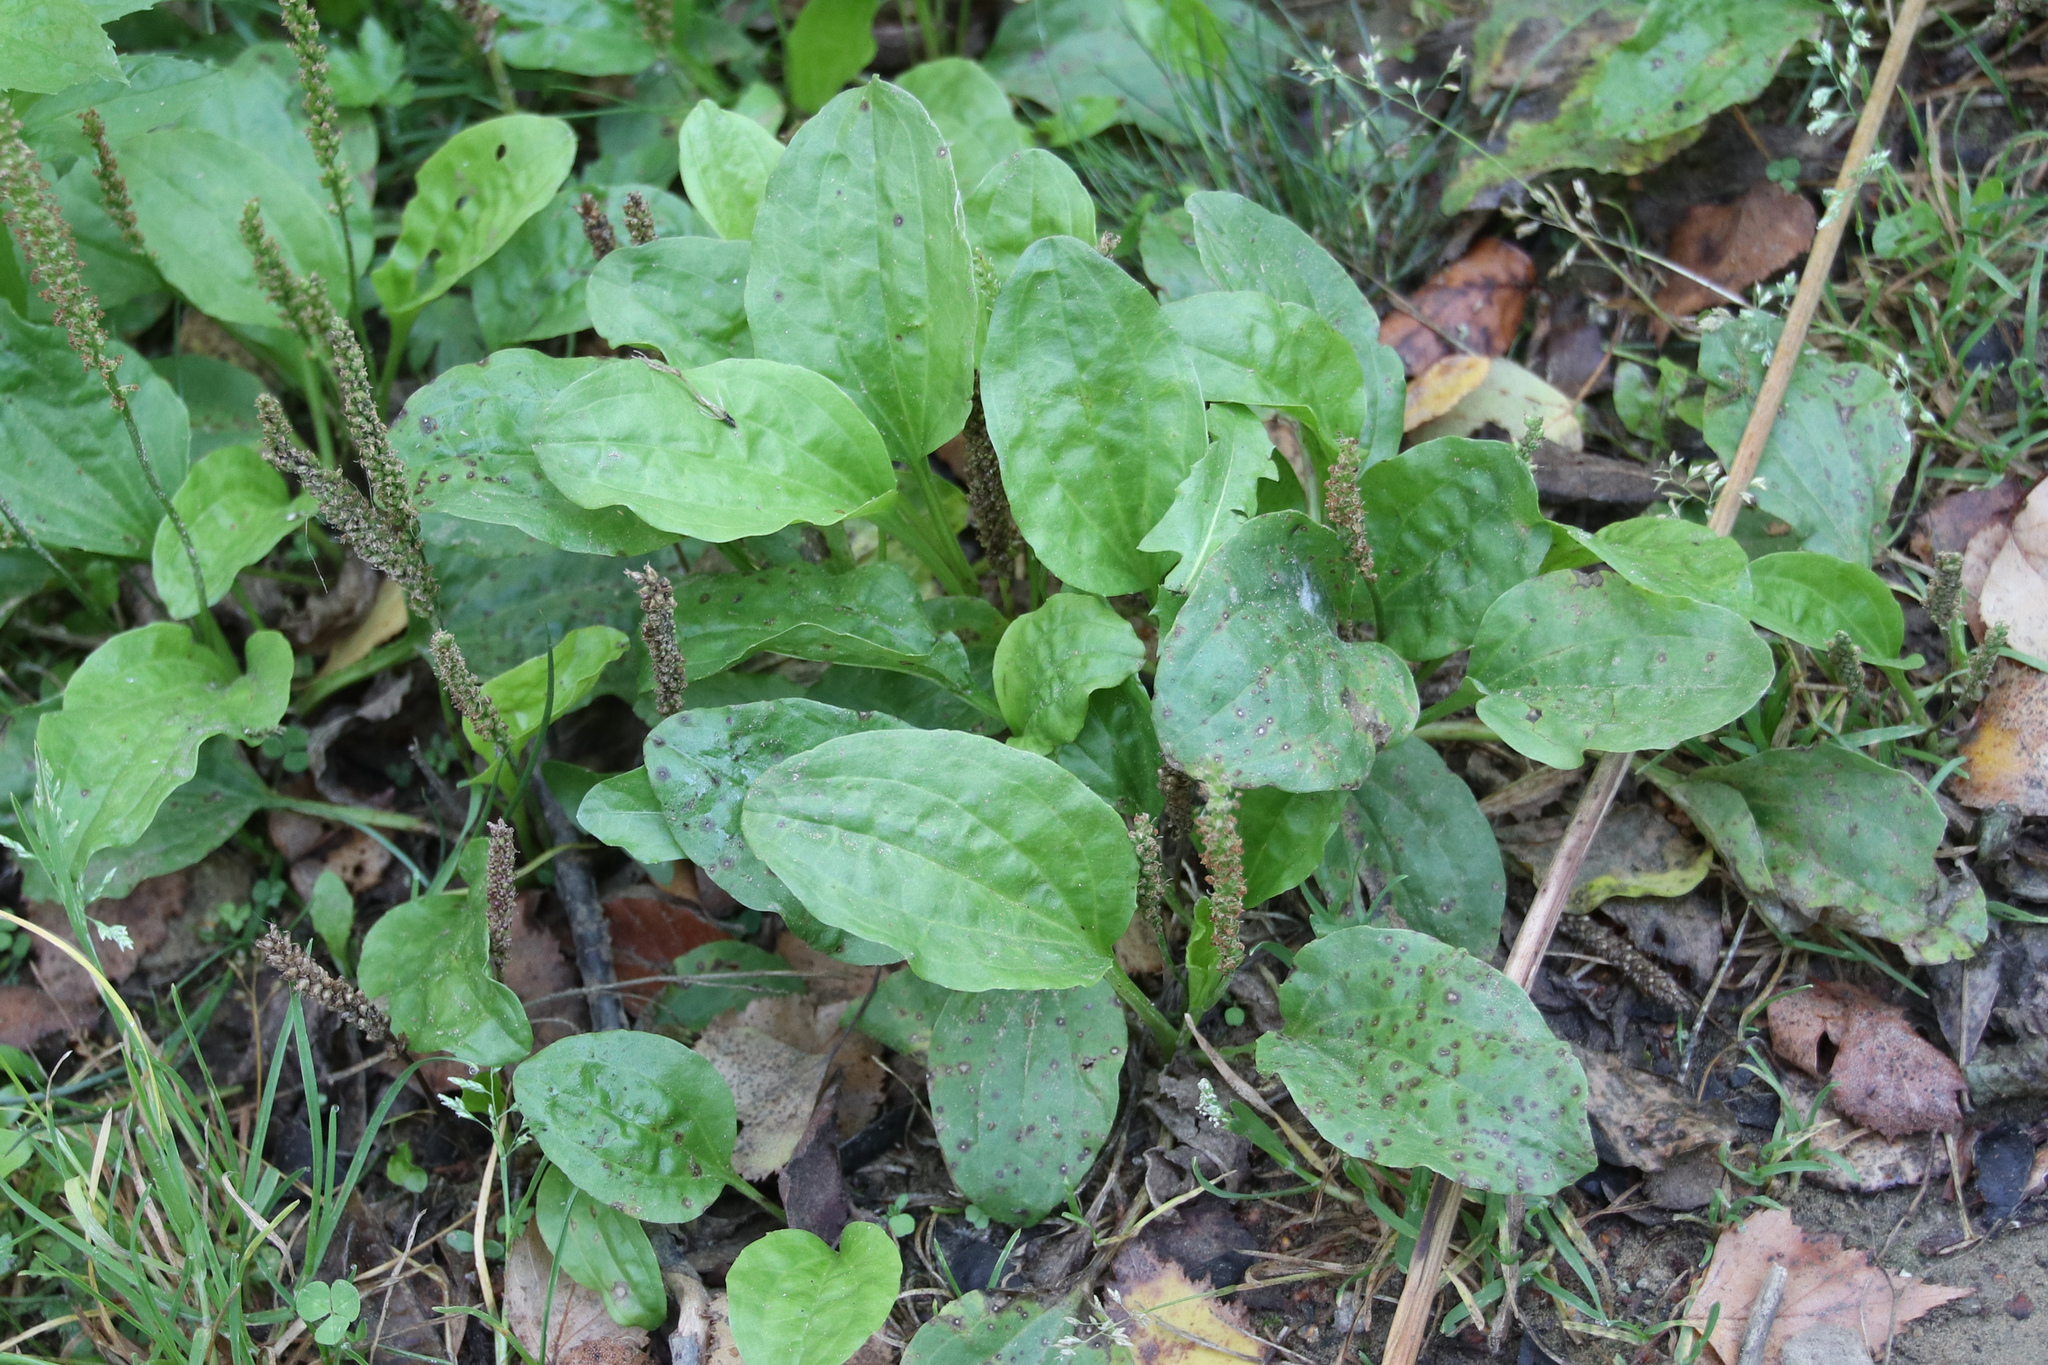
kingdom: Plantae
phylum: Tracheophyta
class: Magnoliopsida
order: Lamiales
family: Plantaginaceae
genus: Plantago
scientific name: Plantago major
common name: Common plantain
